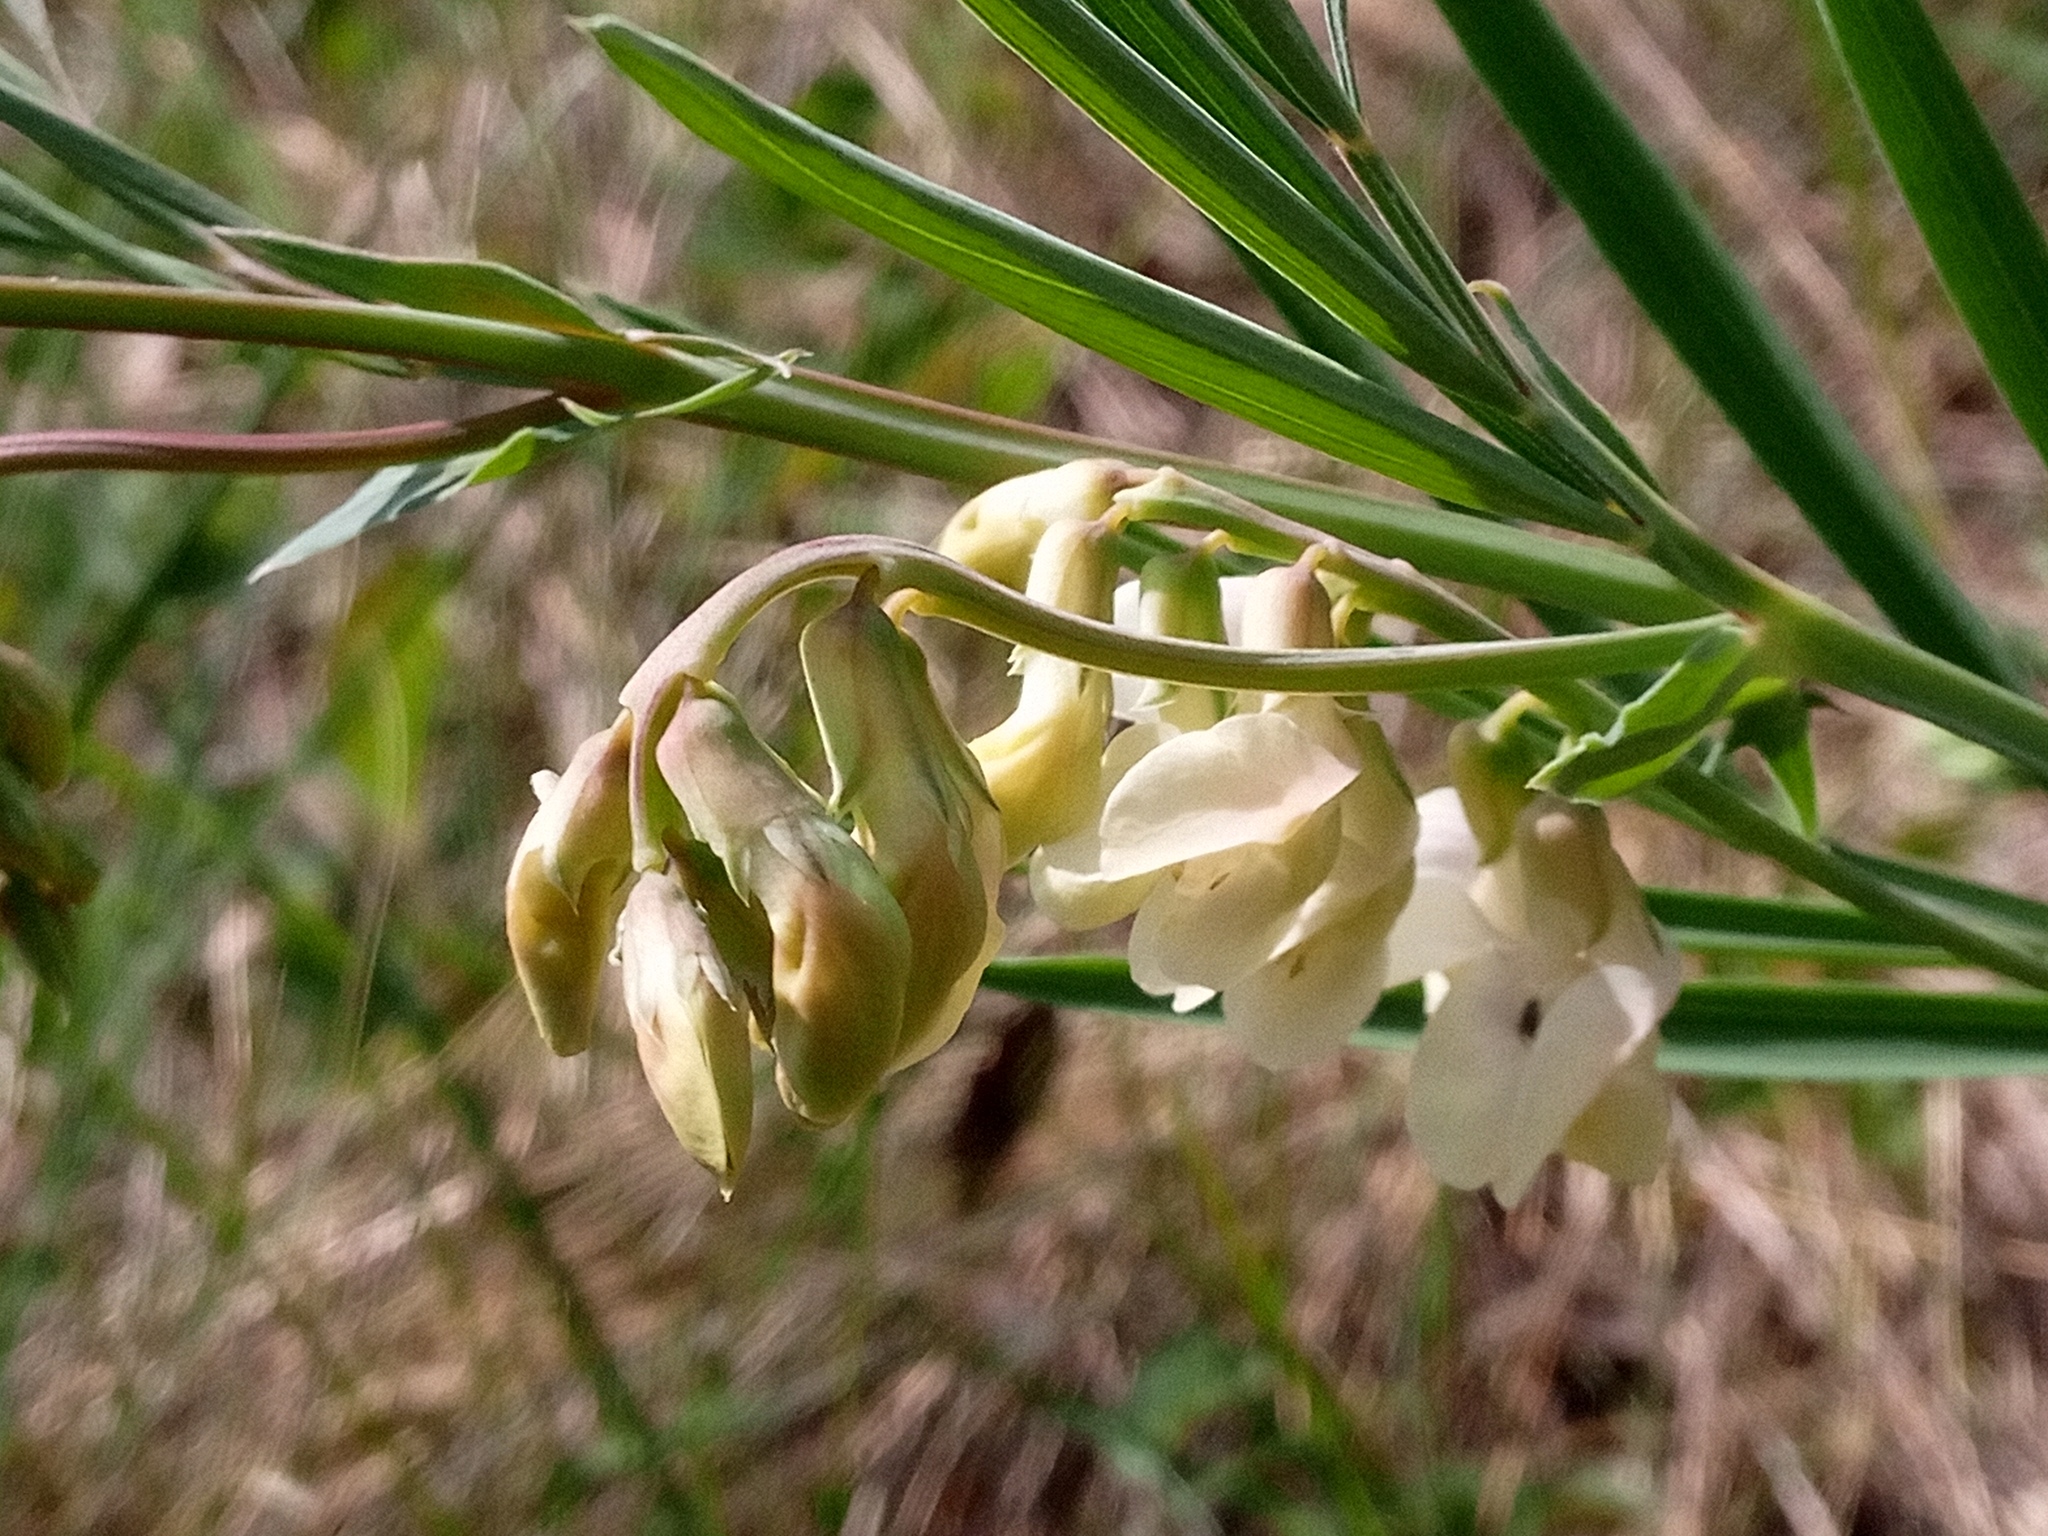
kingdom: Plantae
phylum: Tracheophyta
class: Magnoliopsida
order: Fabales
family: Fabaceae
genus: Lathyrus
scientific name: Lathyrus pannonicus
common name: Pea
